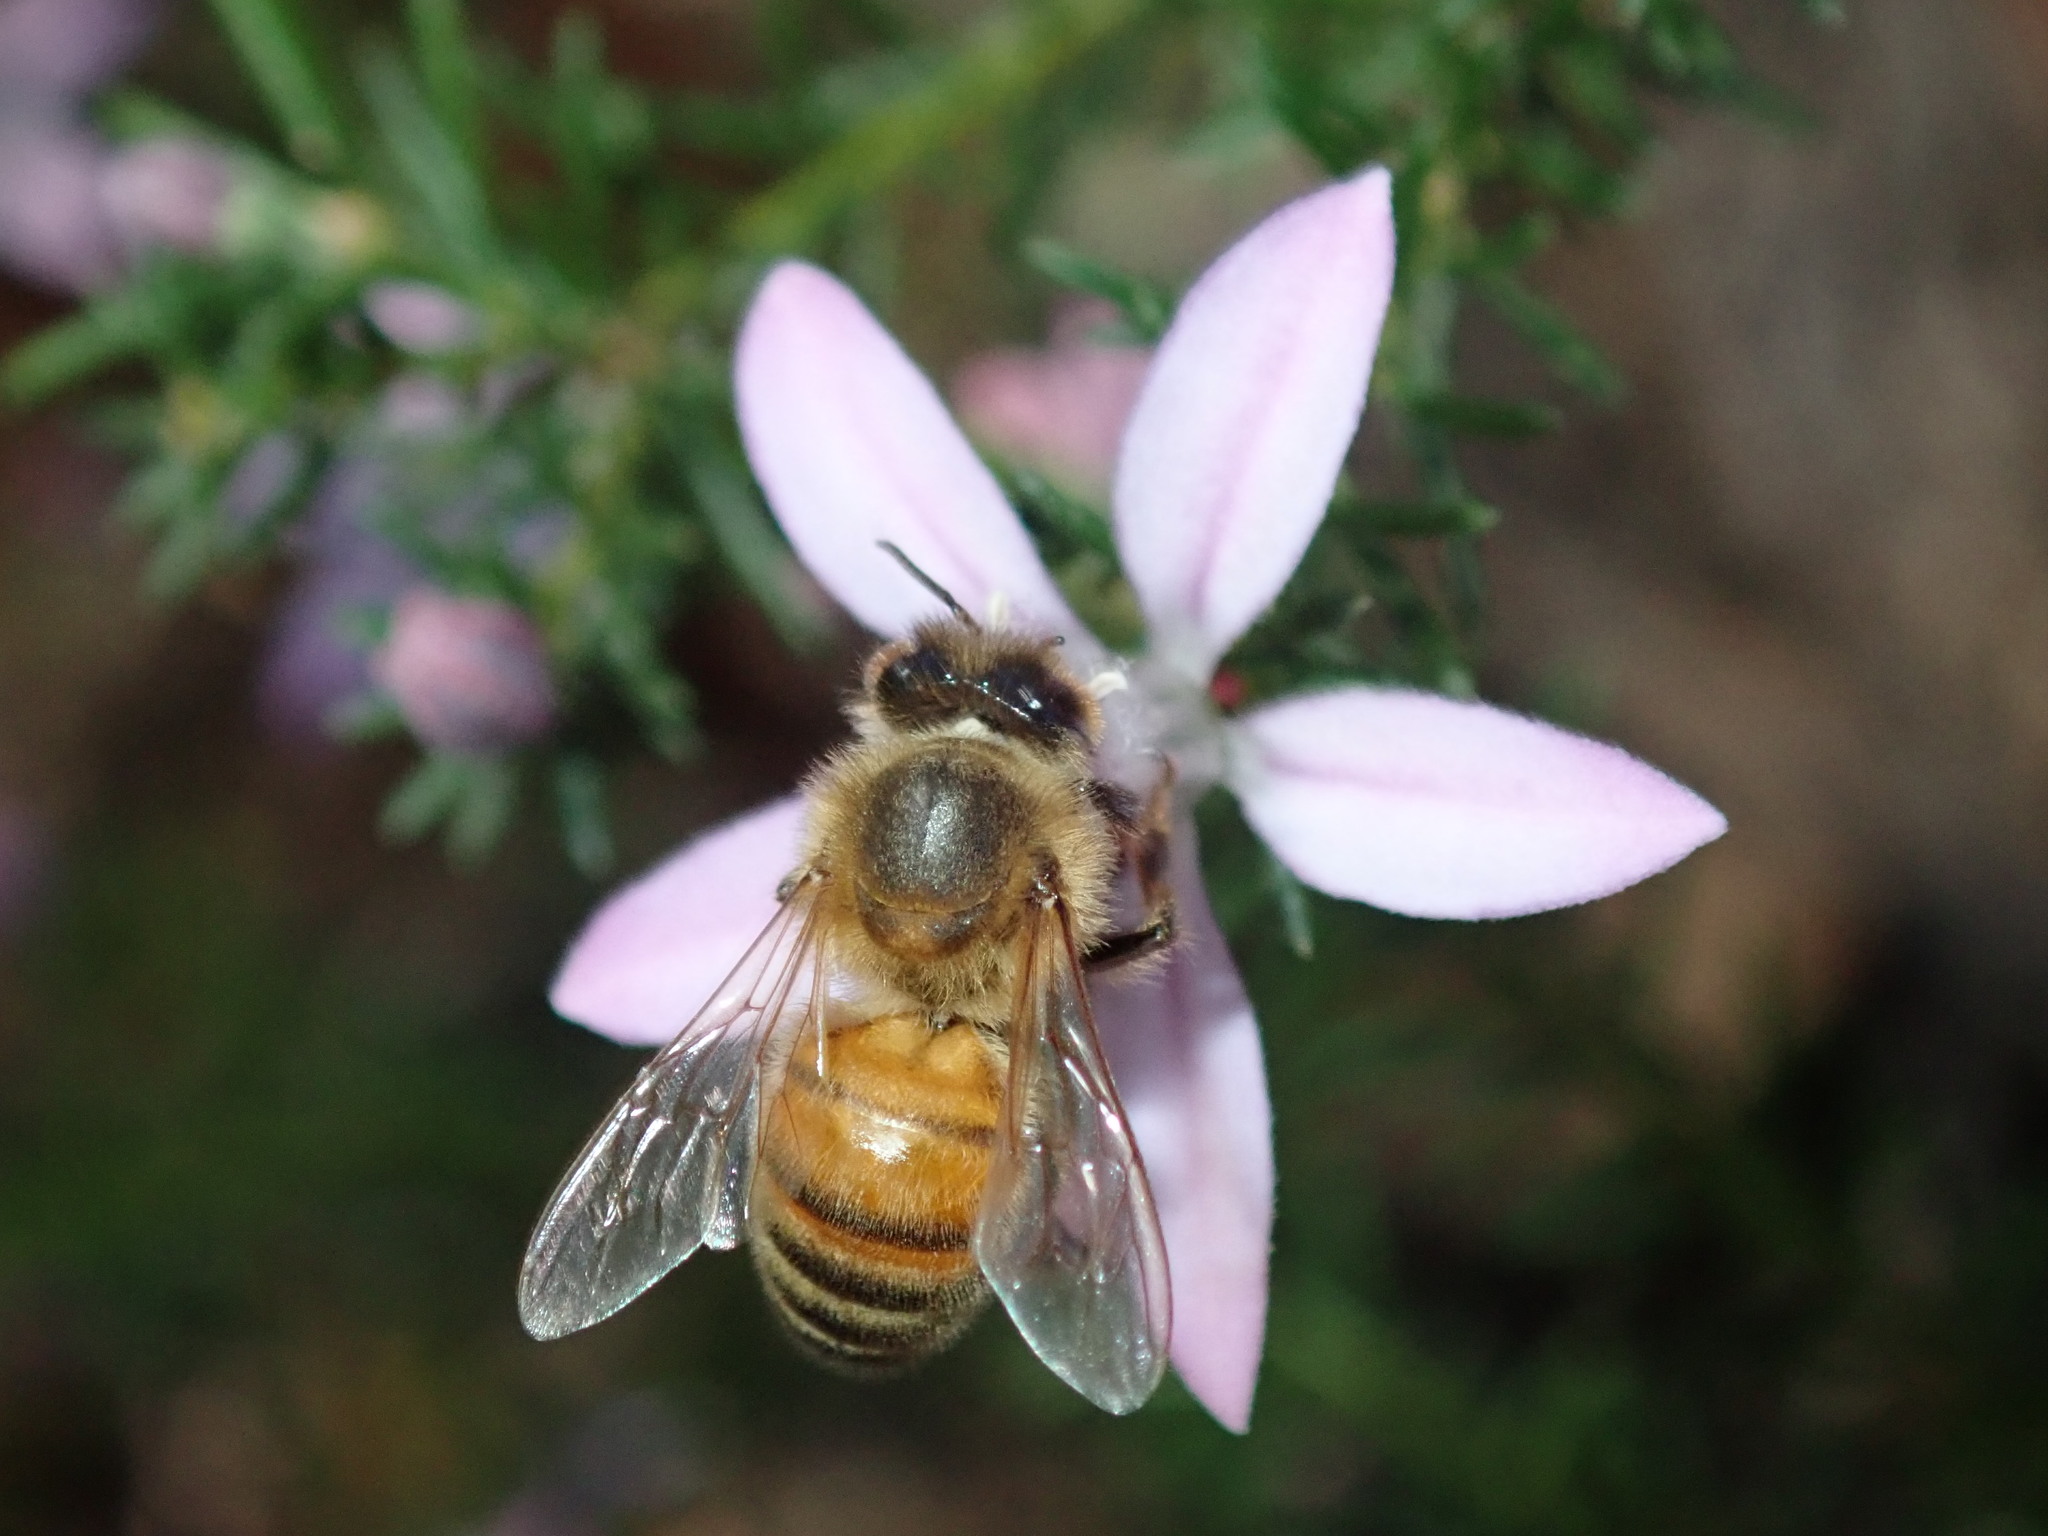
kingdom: Animalia
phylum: Arthropoda
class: Insecta
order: Hymenoptera
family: Apidae
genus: Apis
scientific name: Apis mellifera
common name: Honey bee
